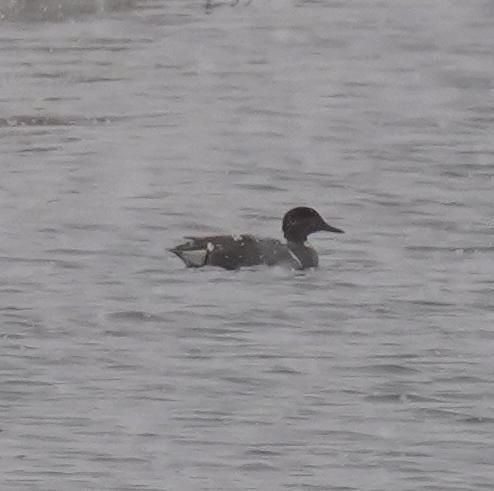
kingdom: Animalia
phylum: Chordata
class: Aves
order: Anseriformes
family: Anatidae
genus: Anas
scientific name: Anas crecca
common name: Eurasian teal
